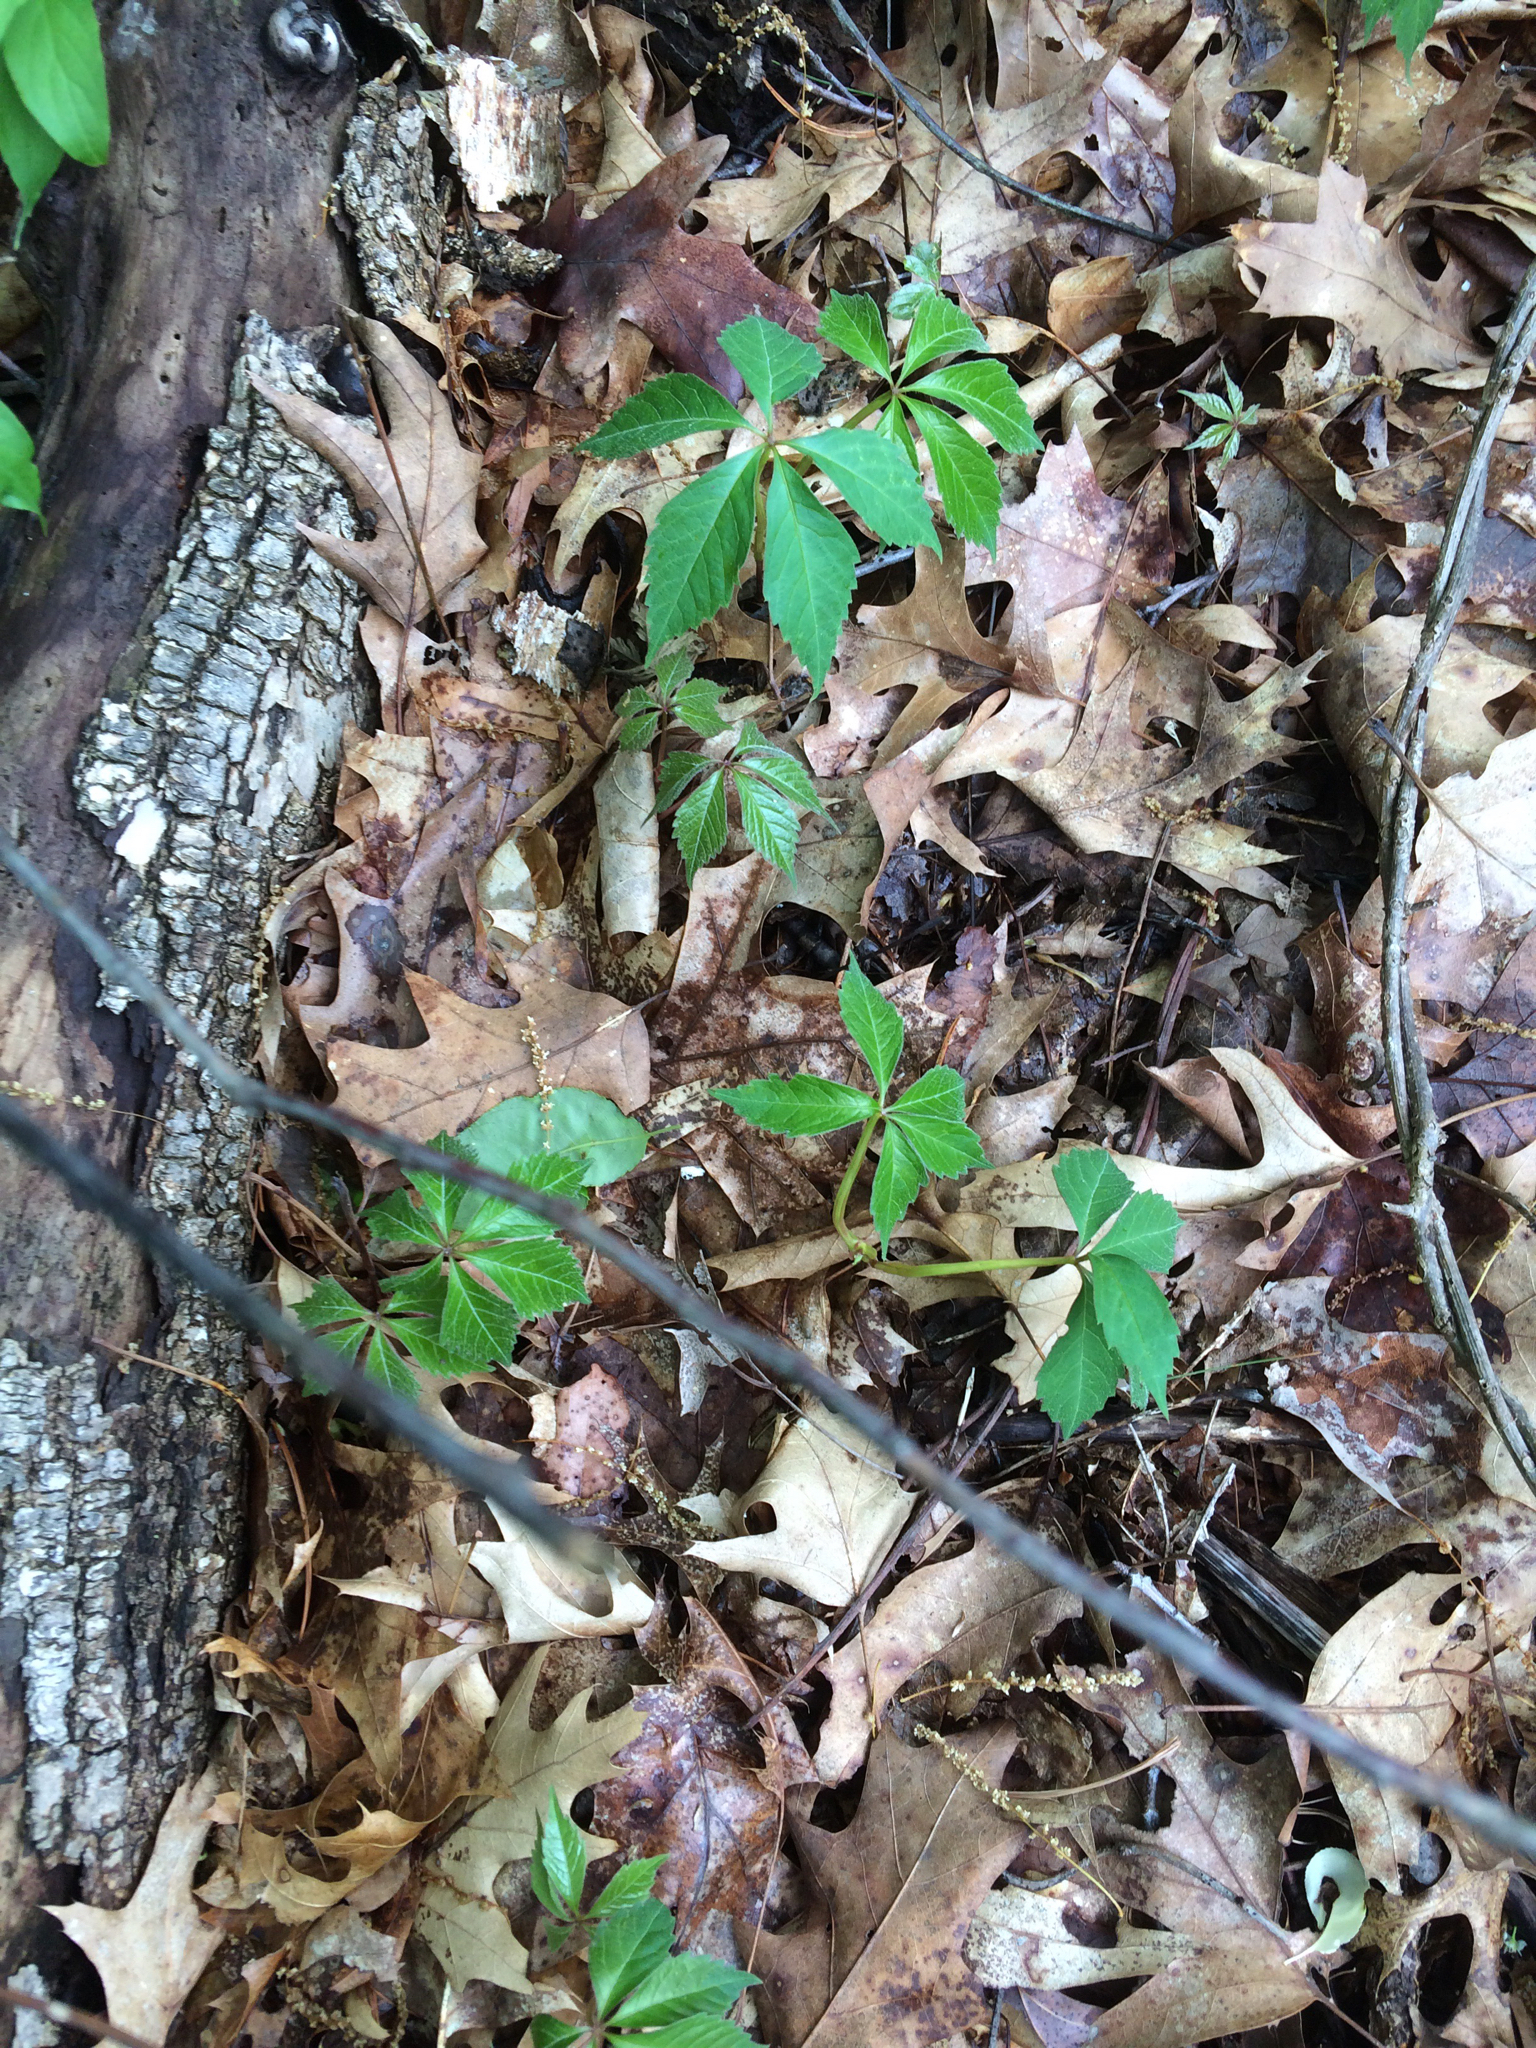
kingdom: Plantae
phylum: Tracheophyta
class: Magnoliopsida
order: Vitales
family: Vitaceae
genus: Parthenocissus
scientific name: Parthenocissus quinquefolia
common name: Virginia-creeper
